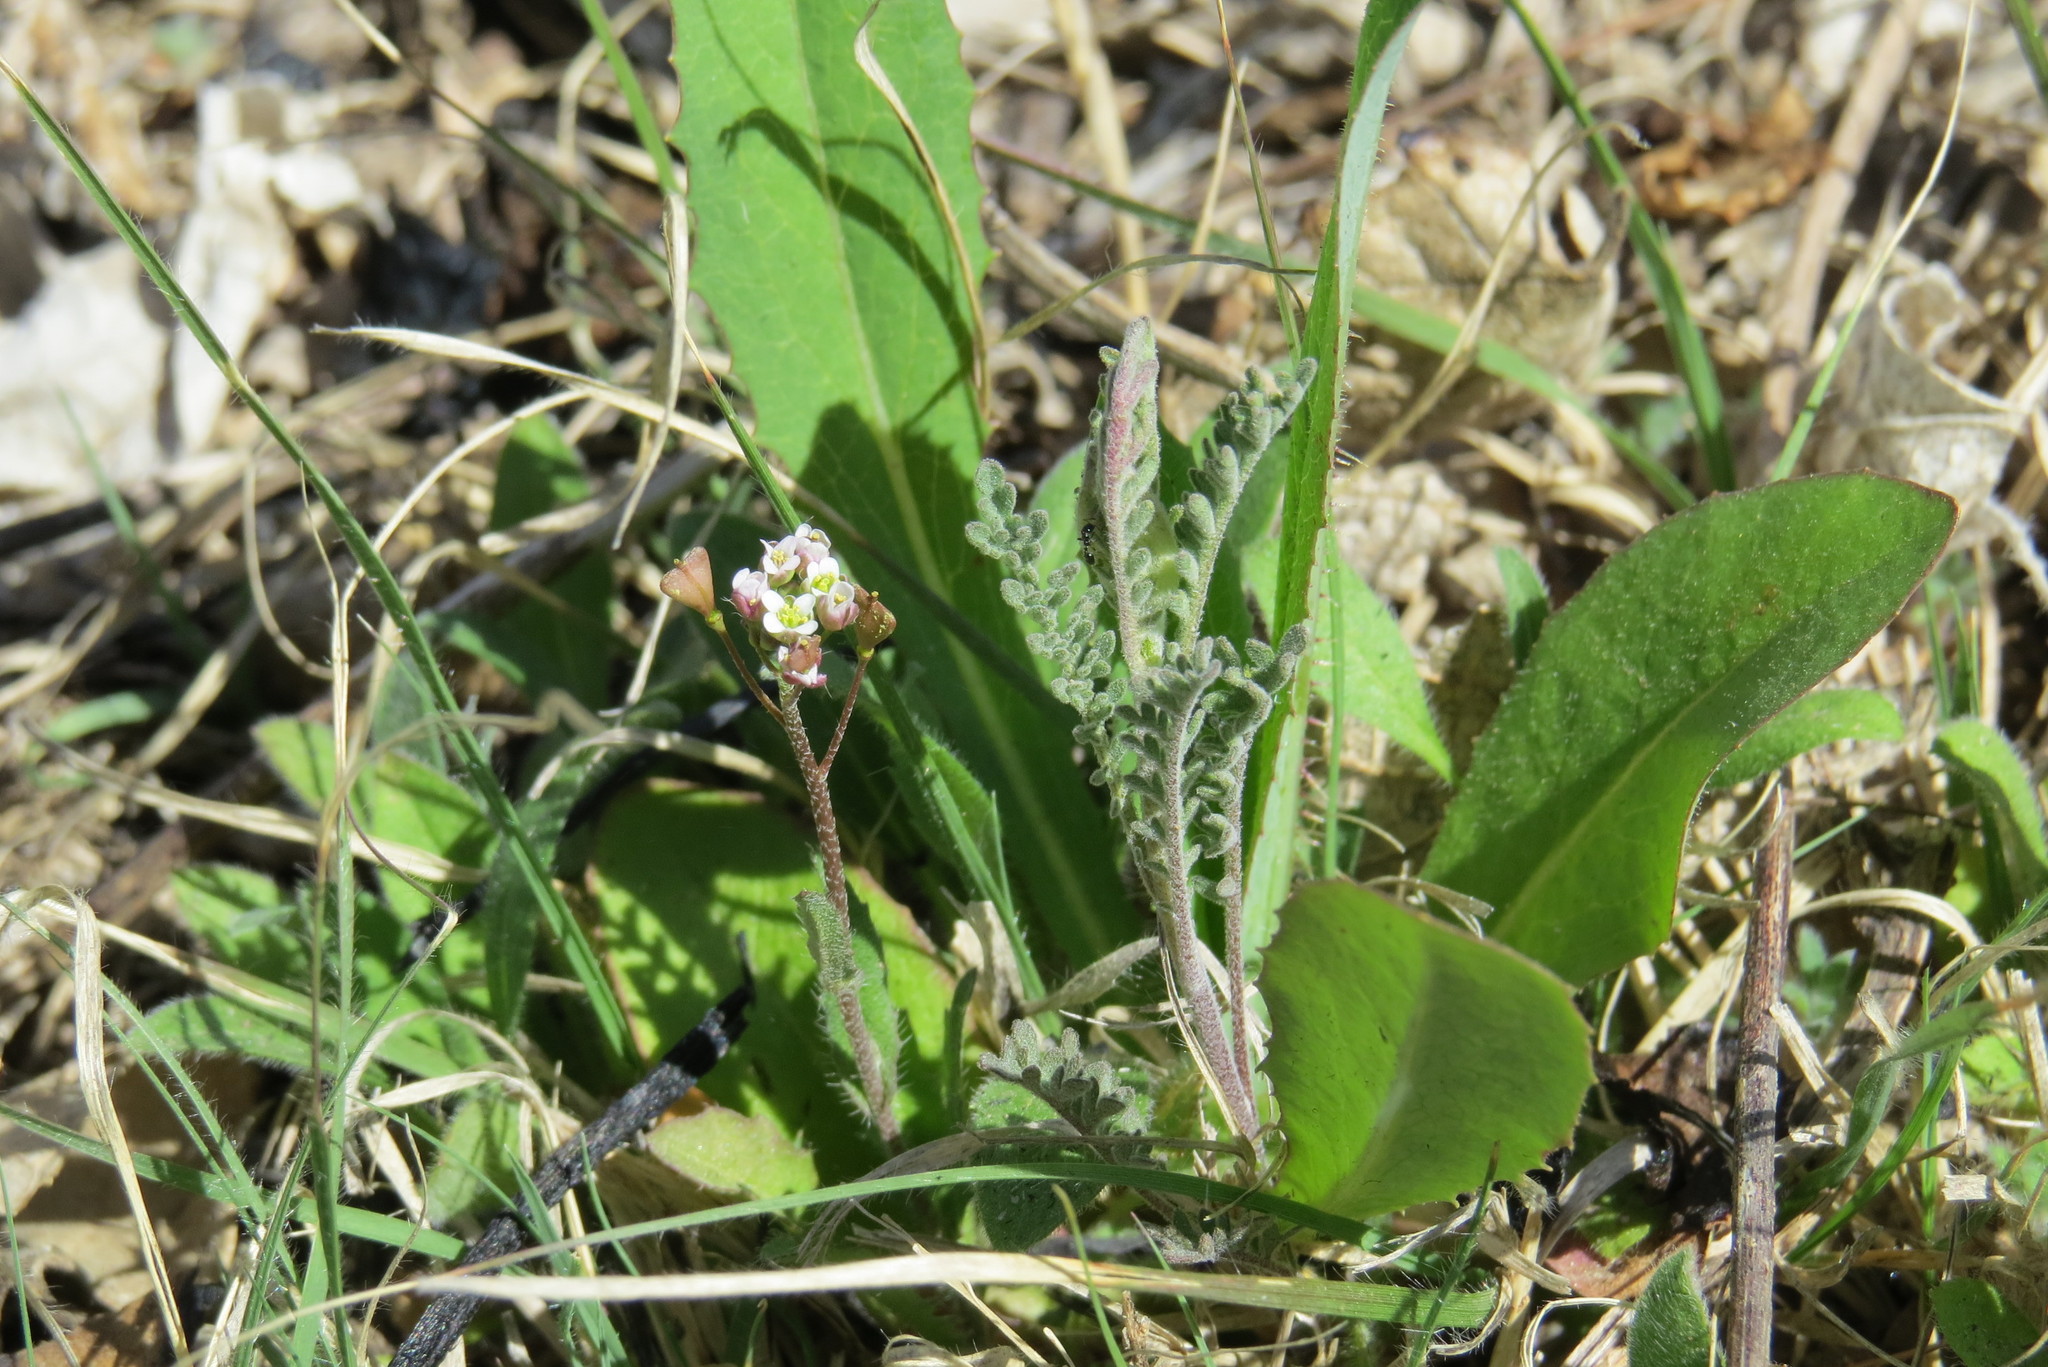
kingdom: Plantae
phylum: Tracheophyta
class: Magnoliopsida
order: Brassicales
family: Brassicaceae
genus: Capsella
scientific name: Capsella bursa-pastoris
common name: Shepherd's purse
